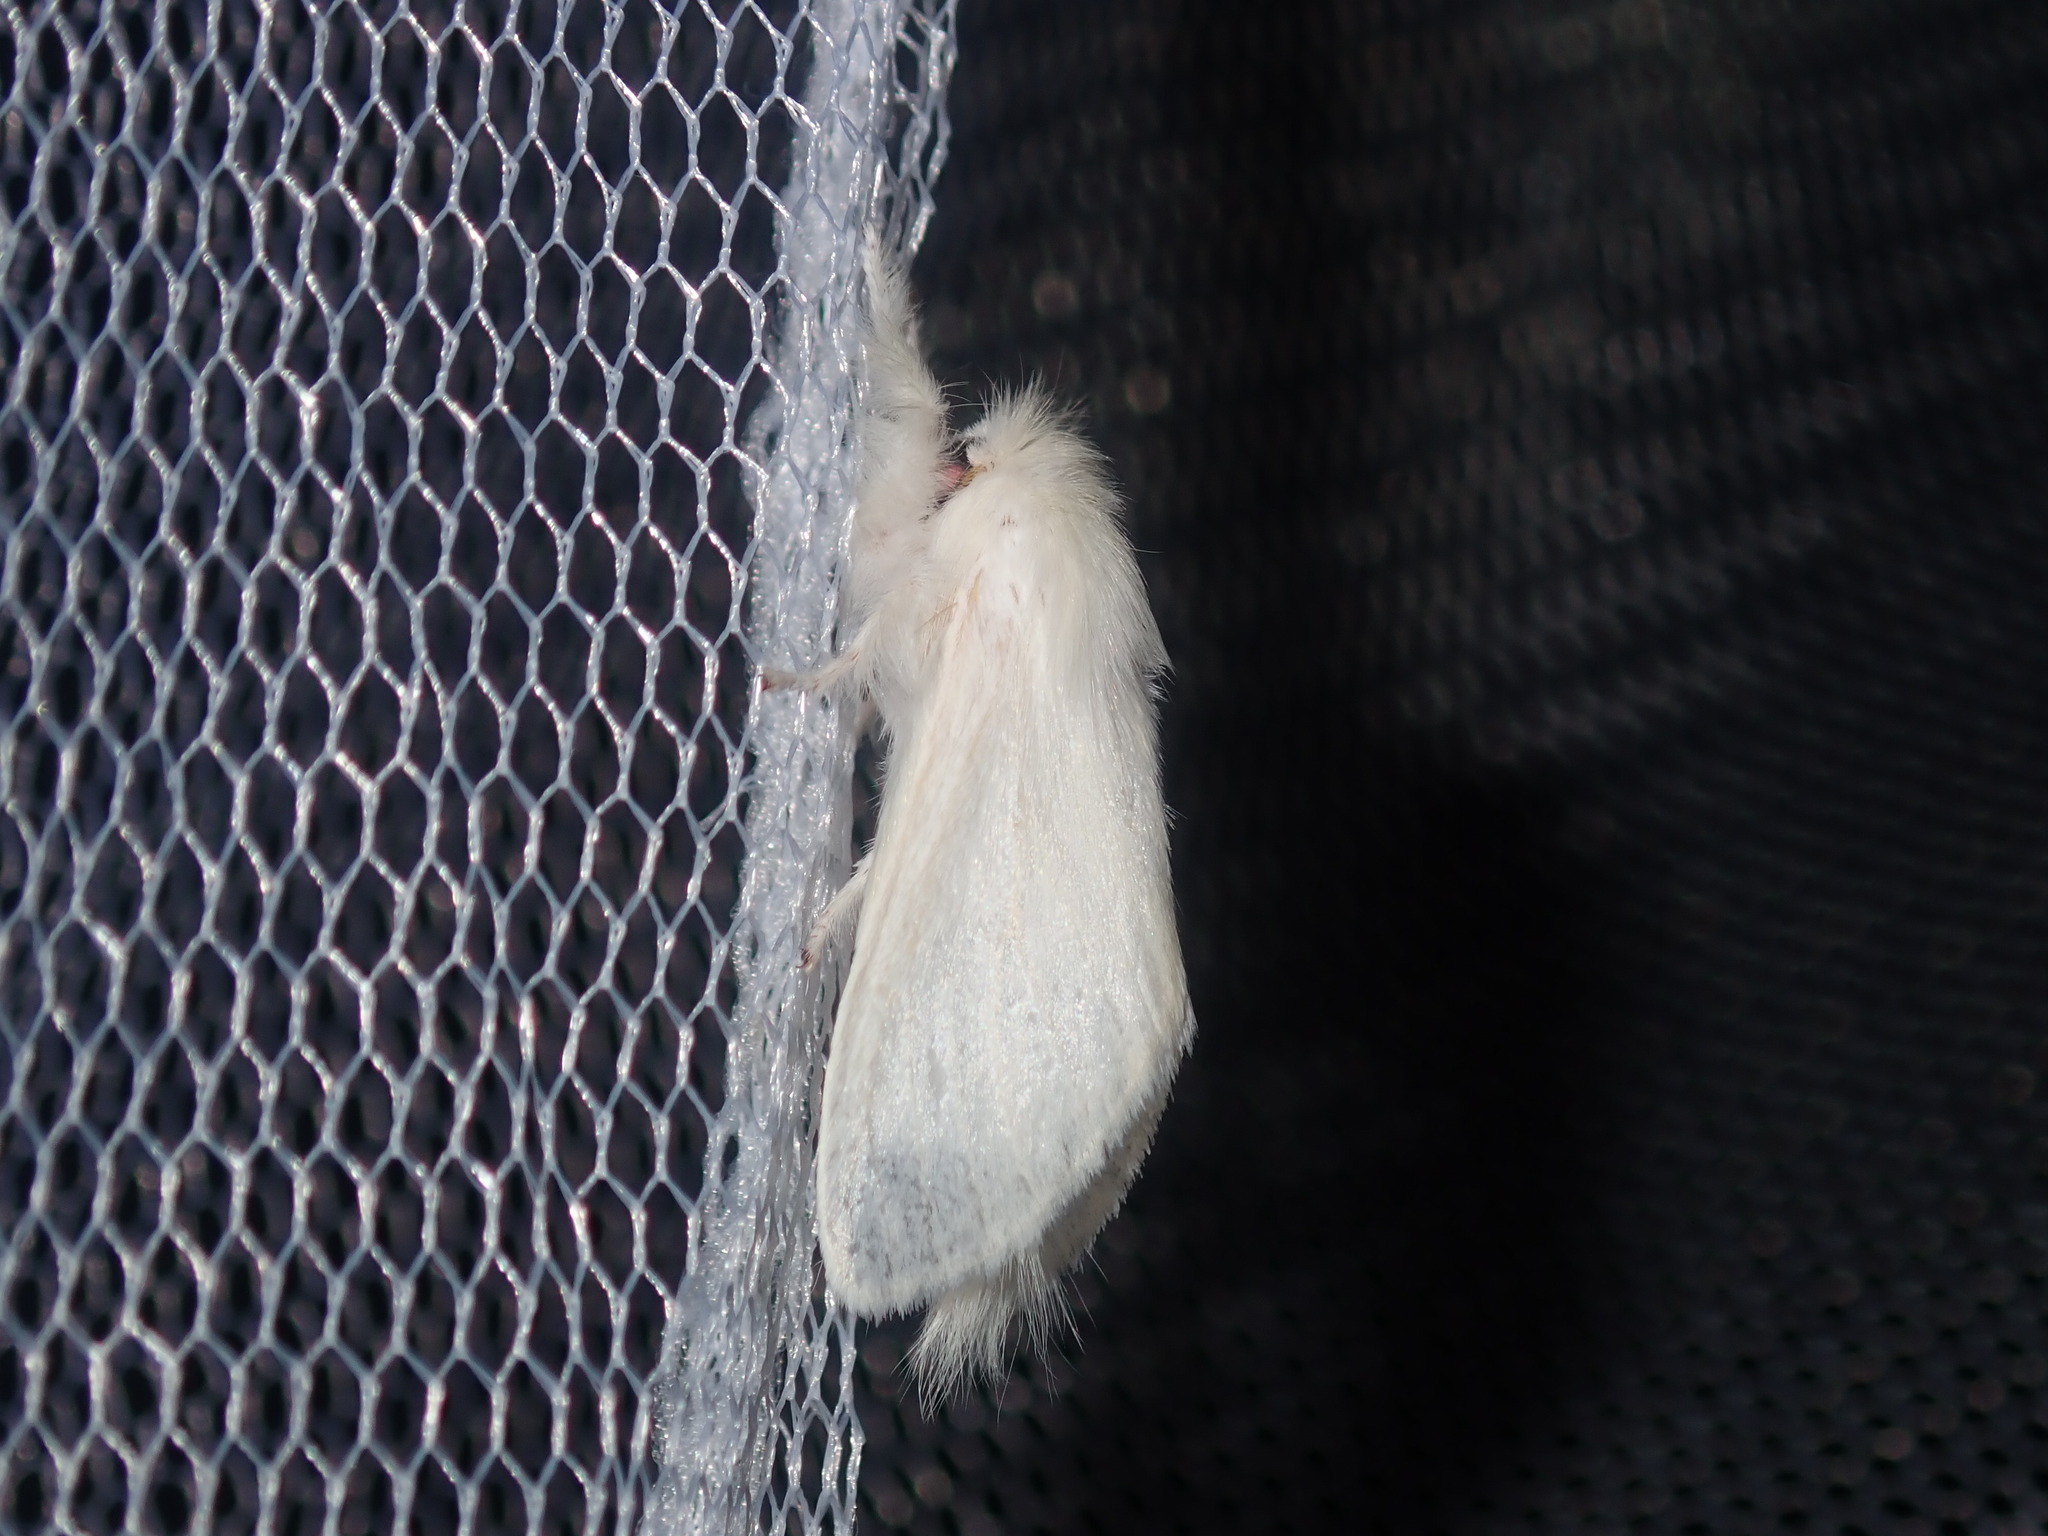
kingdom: Animalia
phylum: Arthropoda
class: Insecta
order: Lepidoptera
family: Notodontidae
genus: Trichiocercus
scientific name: Trichiocercus sparshalli
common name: Long-tailed satin
